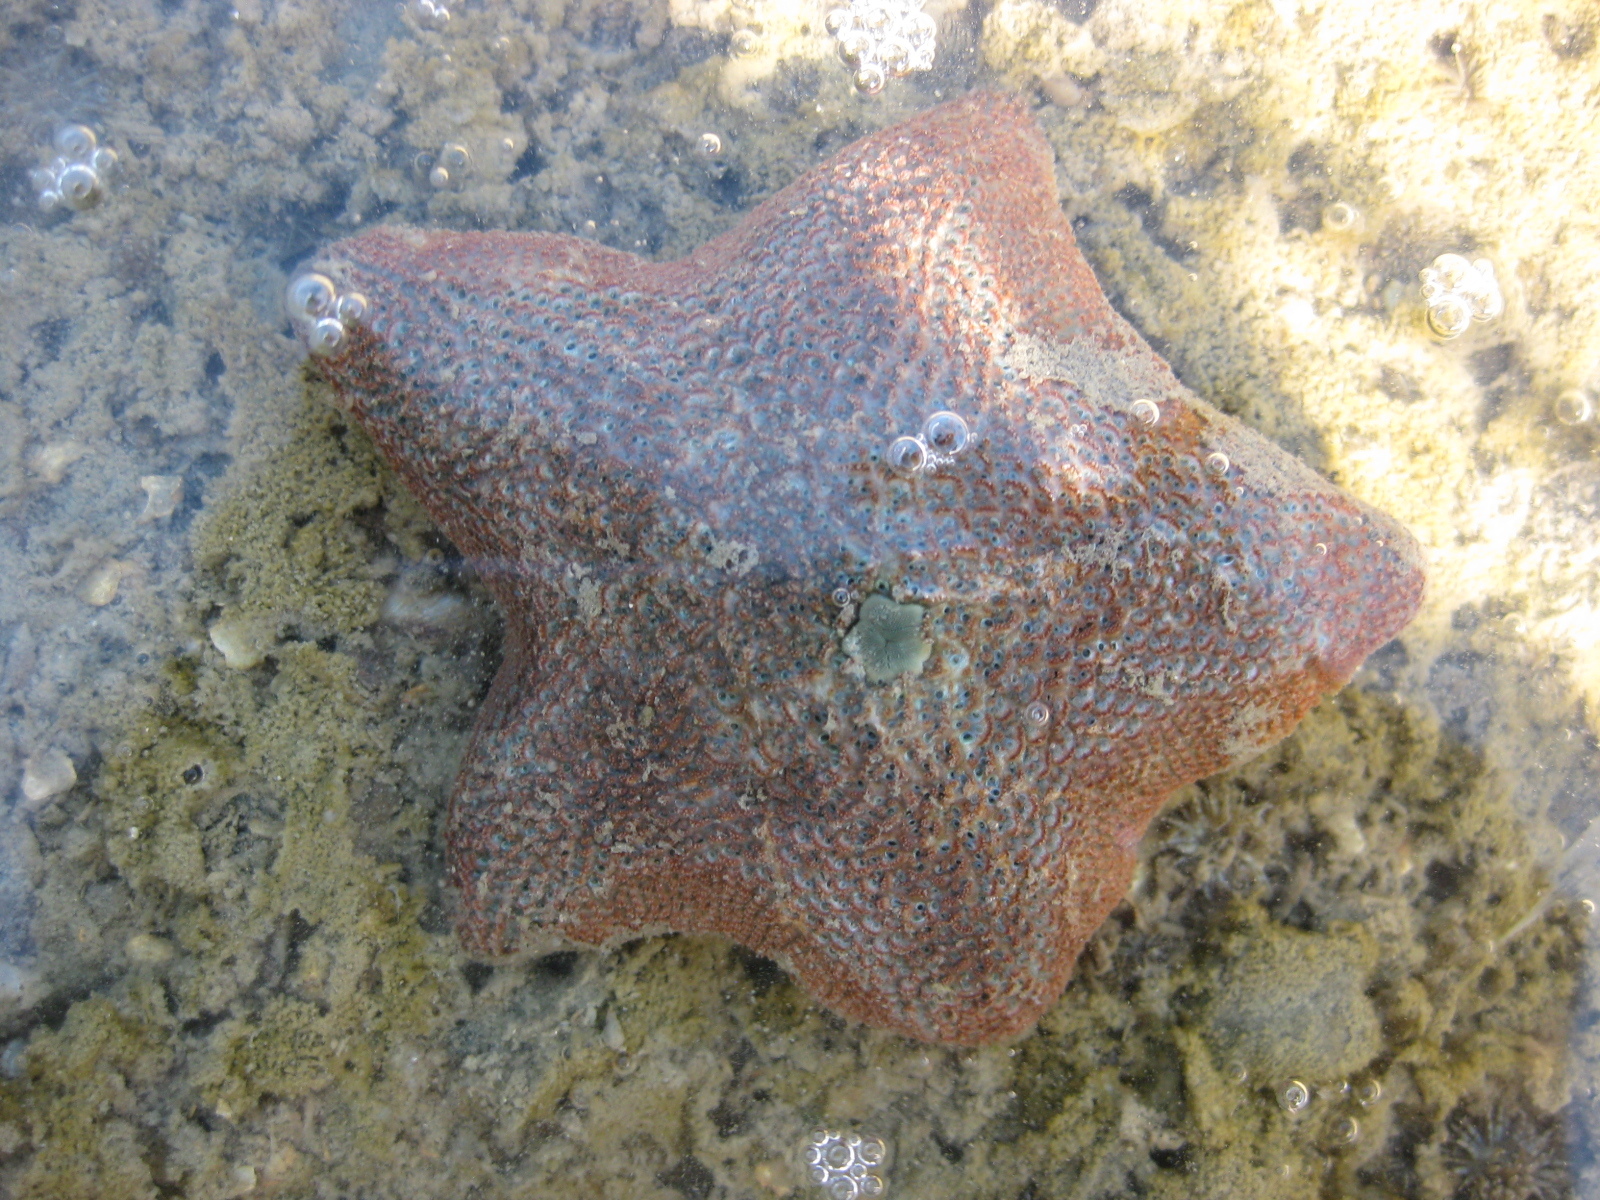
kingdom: Animalia
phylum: Echinodermata
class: Asteroidea
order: Valvatida
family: Asterinidae
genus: Patiriella
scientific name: Patiriella regularis
